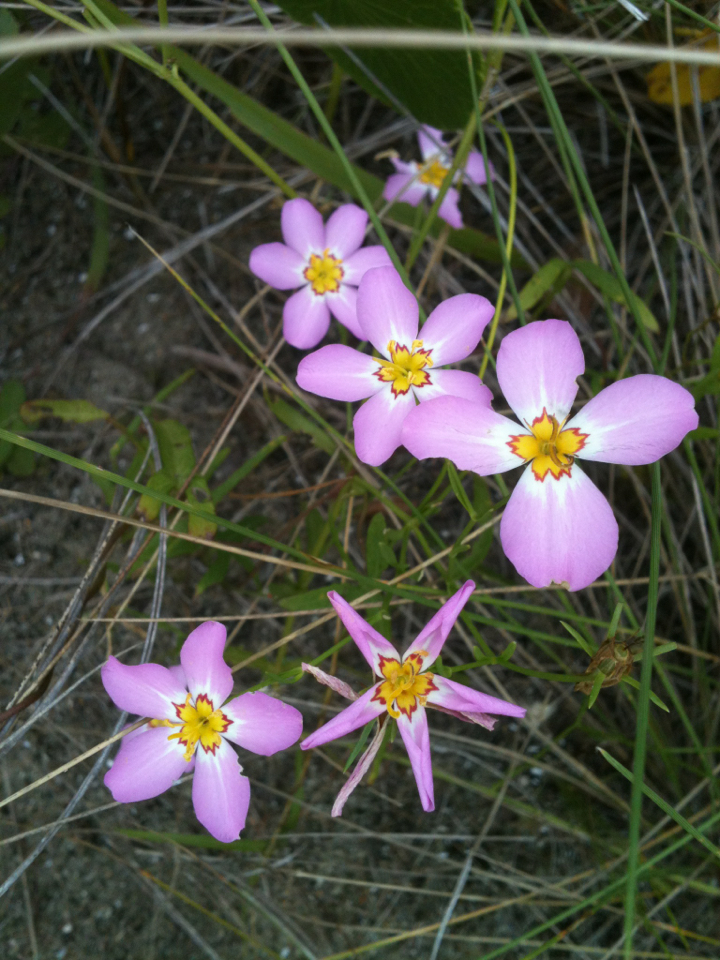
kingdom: Plantae
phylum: Tracheophyta
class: Magnoliopsida
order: Gentianales
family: Gentianaceae
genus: Sabatia
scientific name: Sabatia stellaris
